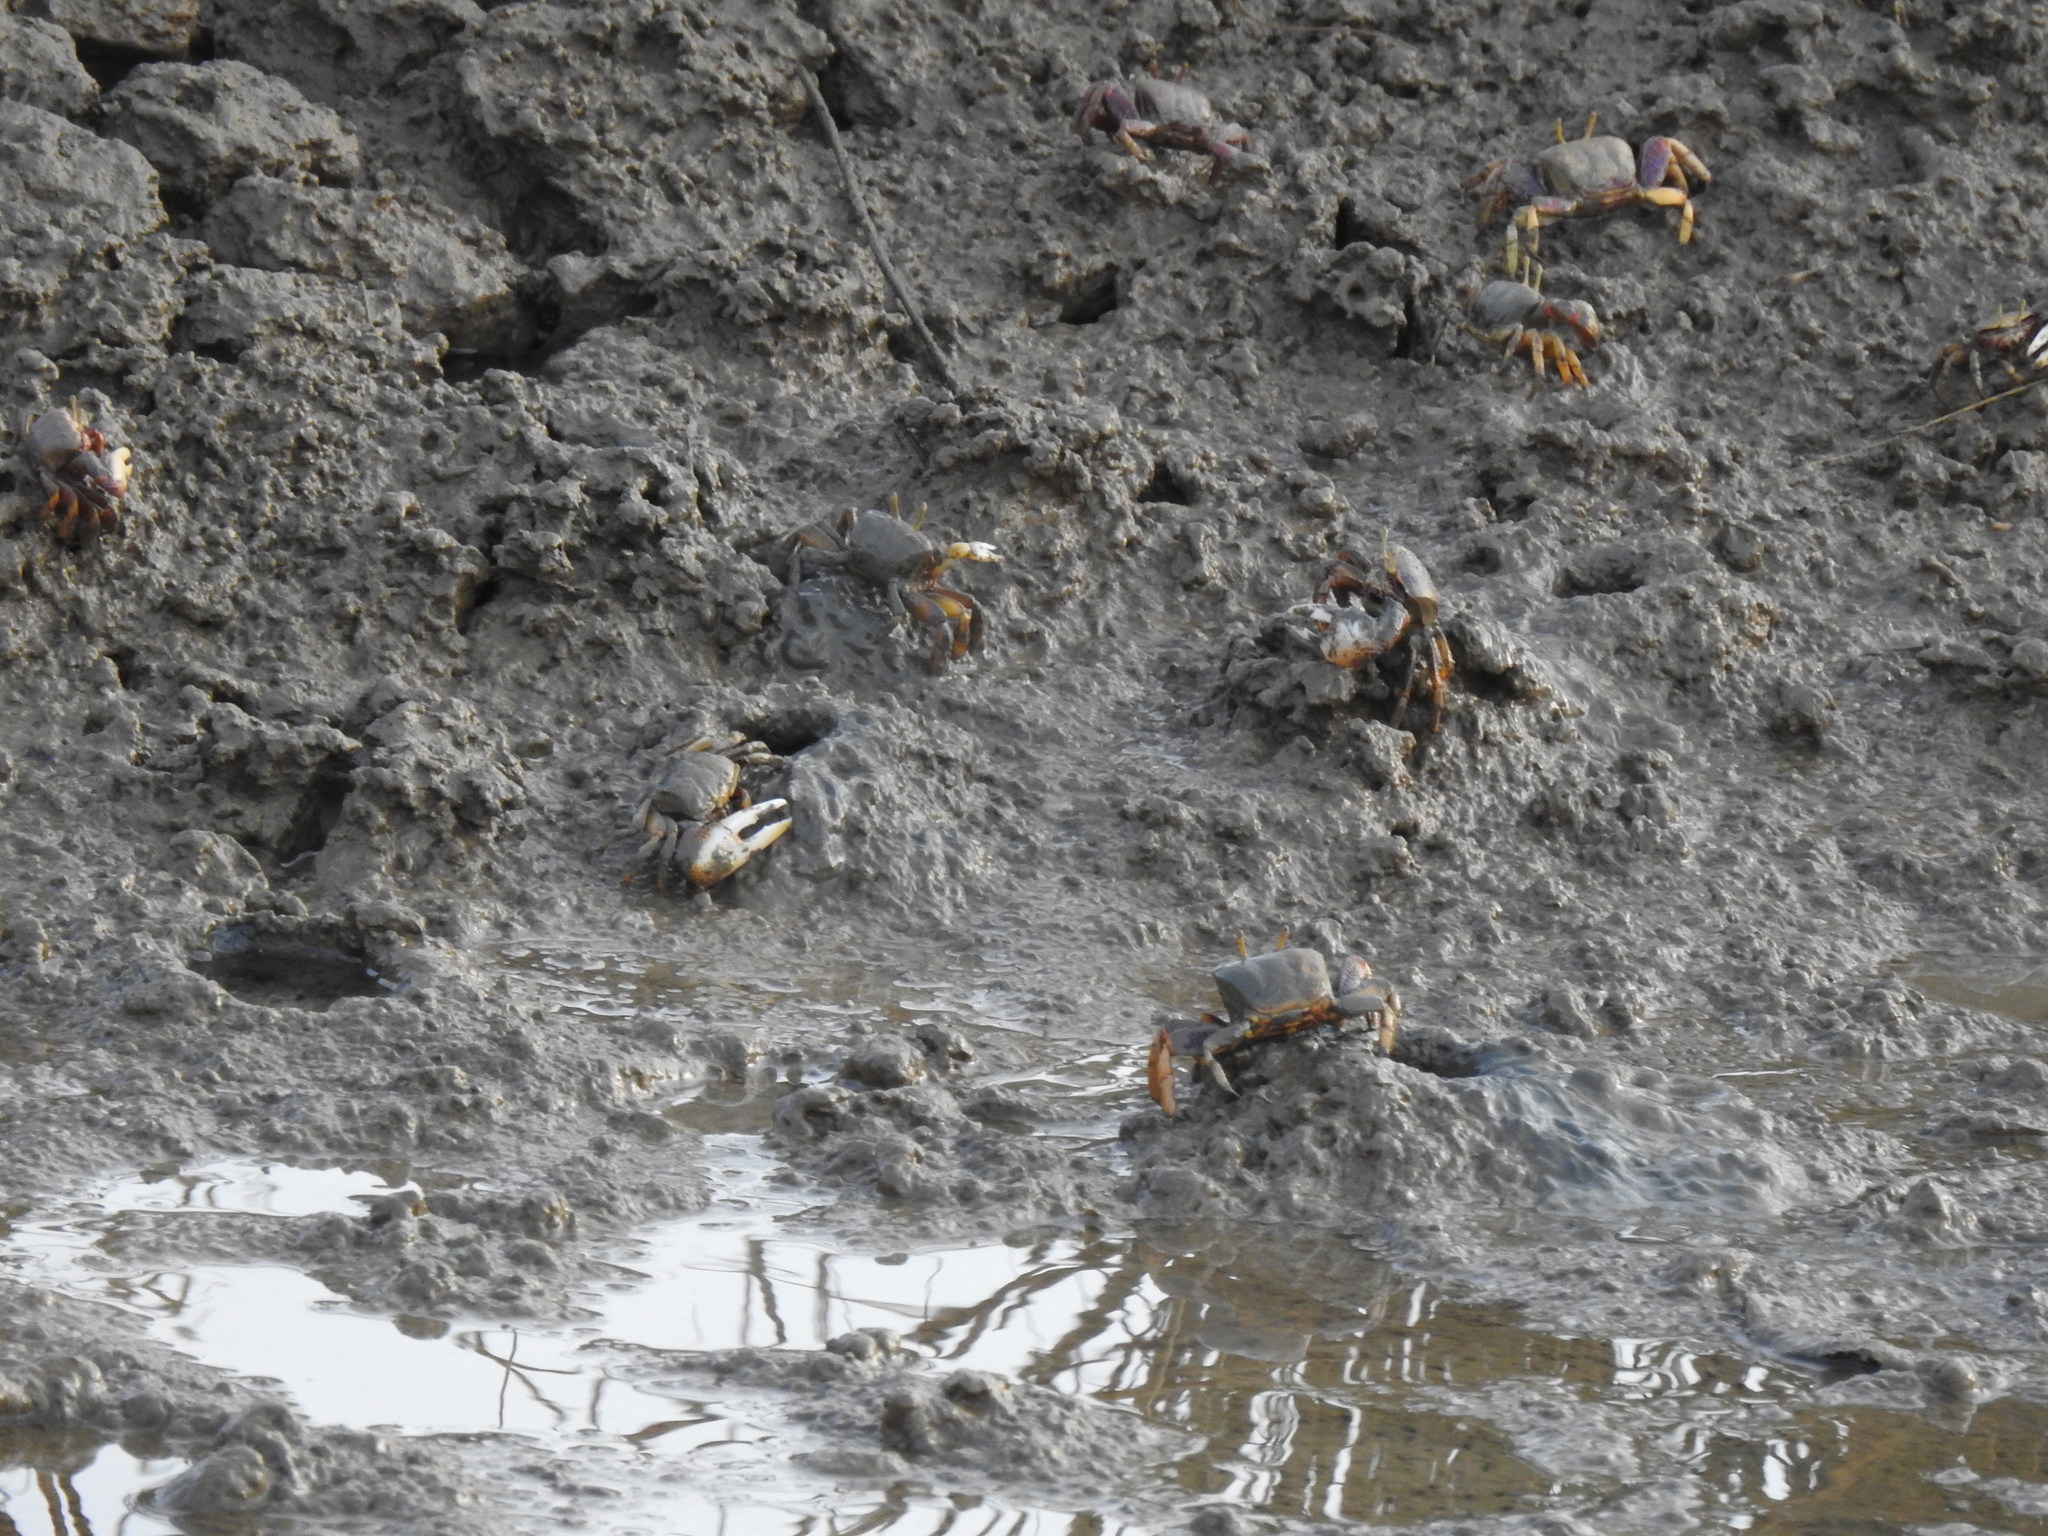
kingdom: Animalia
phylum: Arthropoda
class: Malacostraca
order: Decapoda
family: Ocypodidae
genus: Afruca
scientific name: Afruca tangeri
